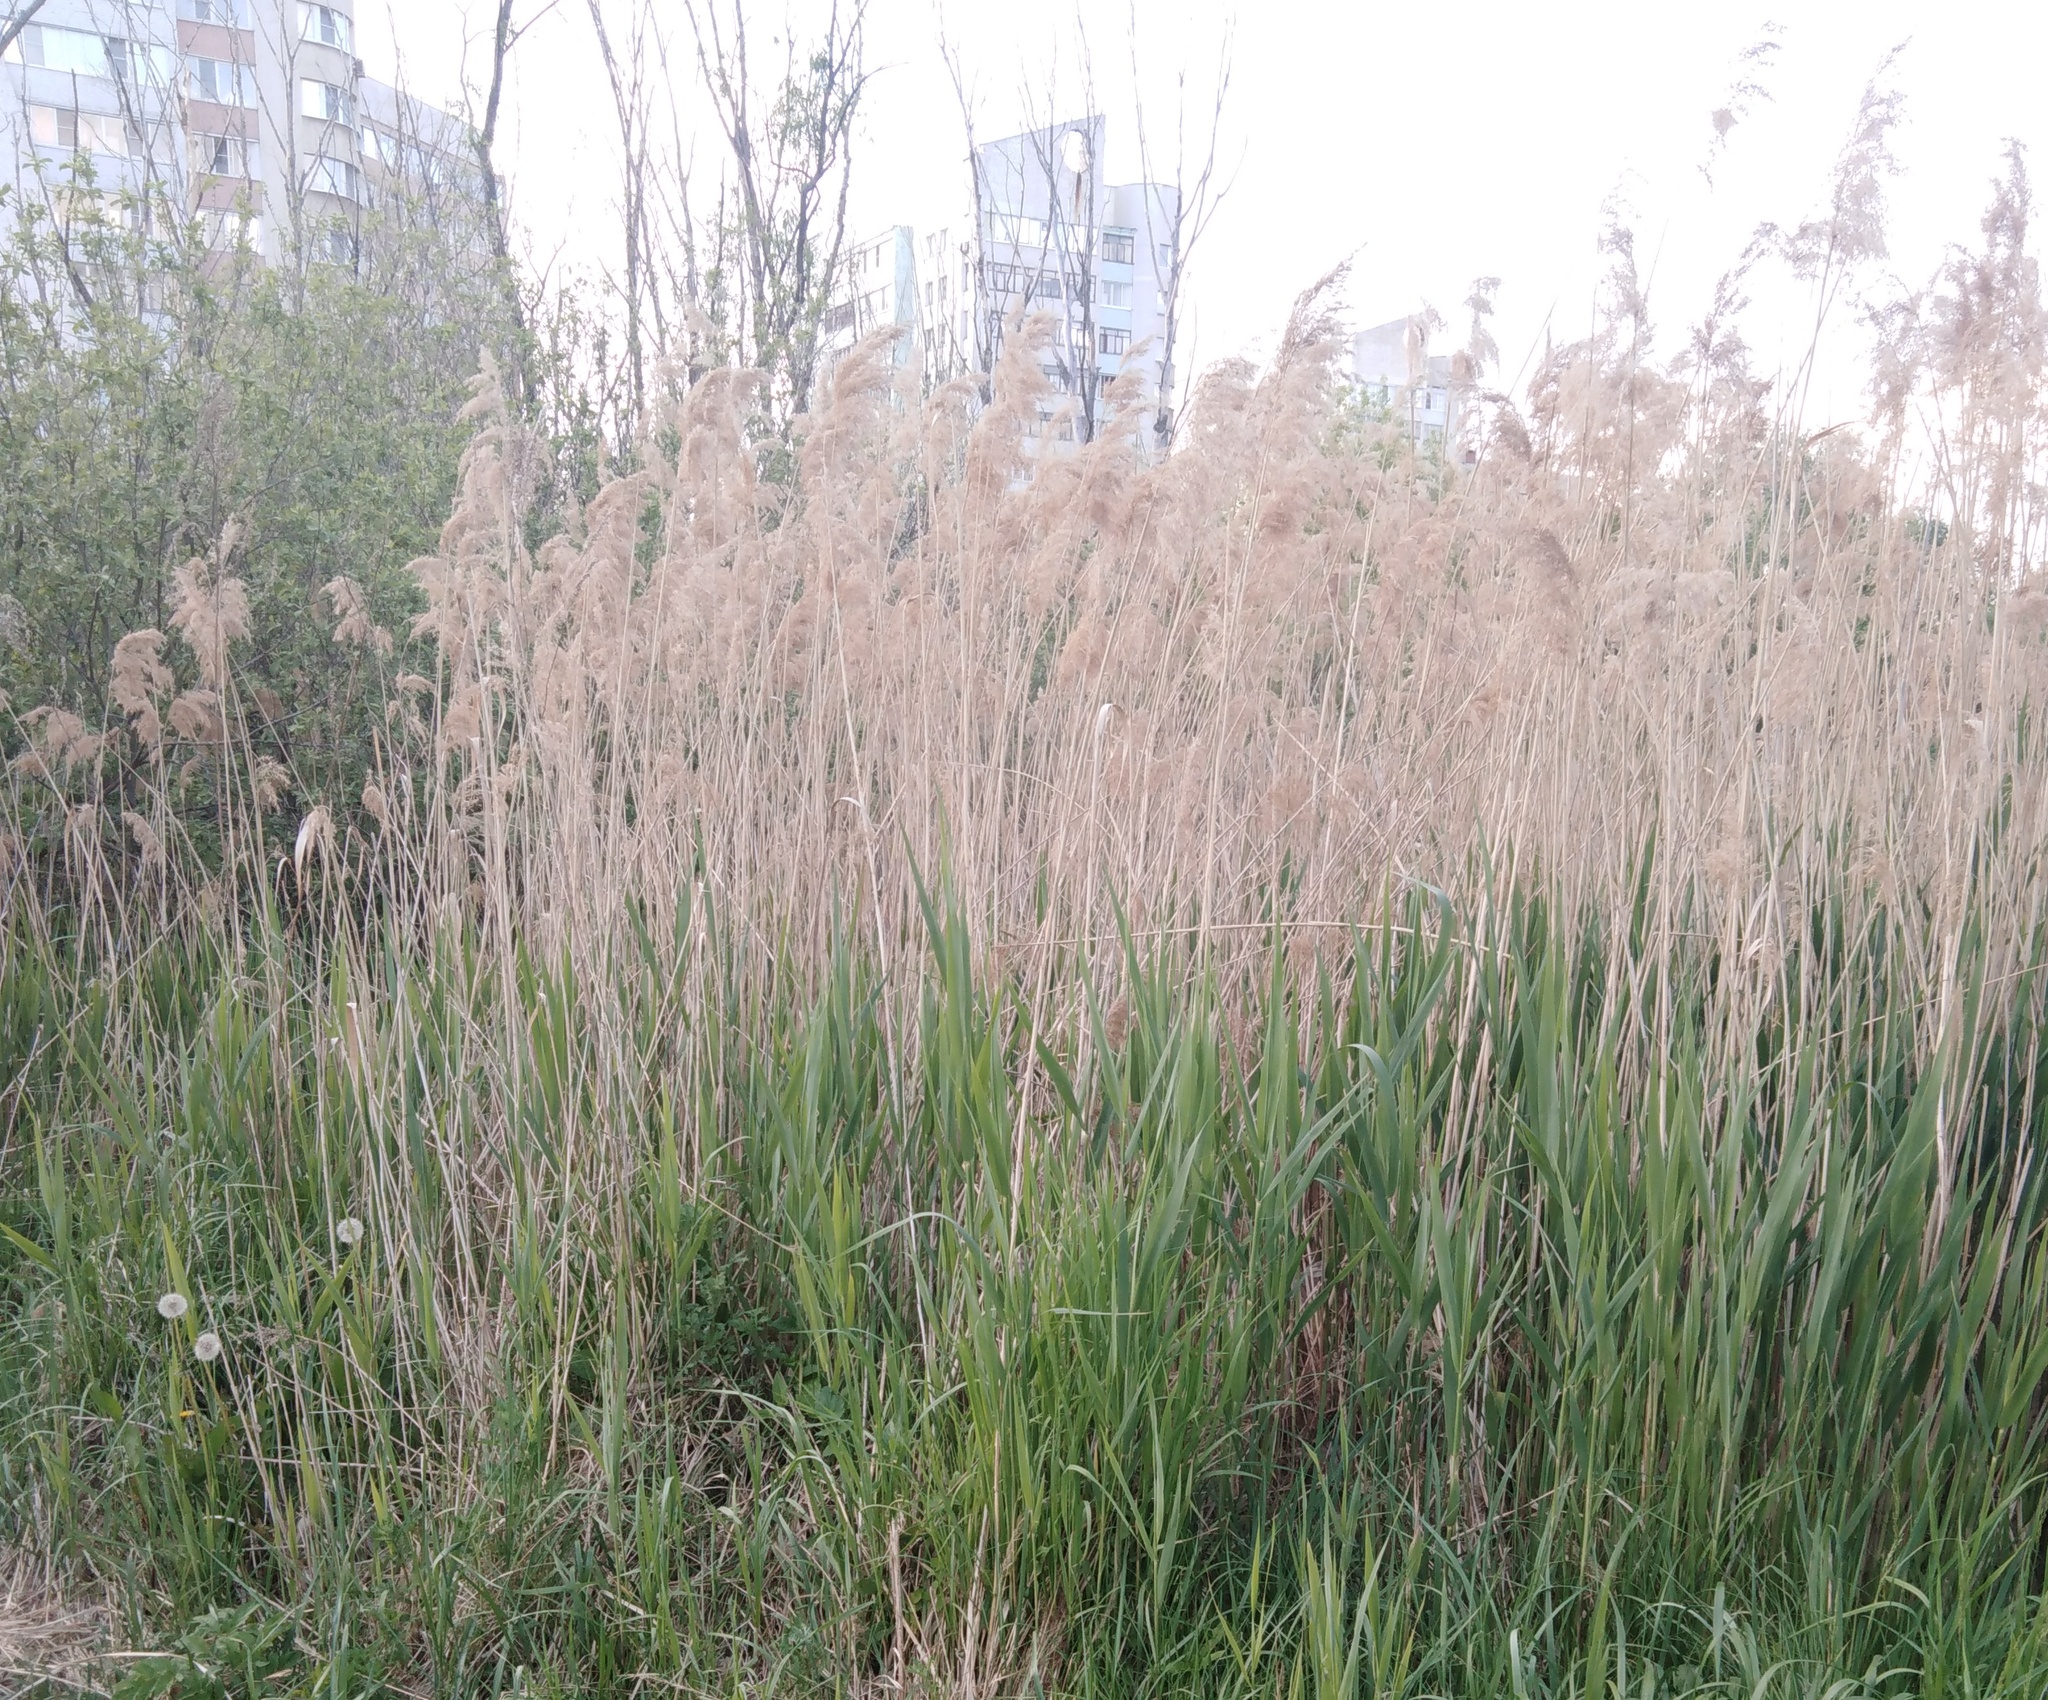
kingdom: Plantae
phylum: Tracheophyta
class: Liliopsida
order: Poales
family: Poaceae
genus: Phragmites
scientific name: Phragmites australis
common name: Common reed
